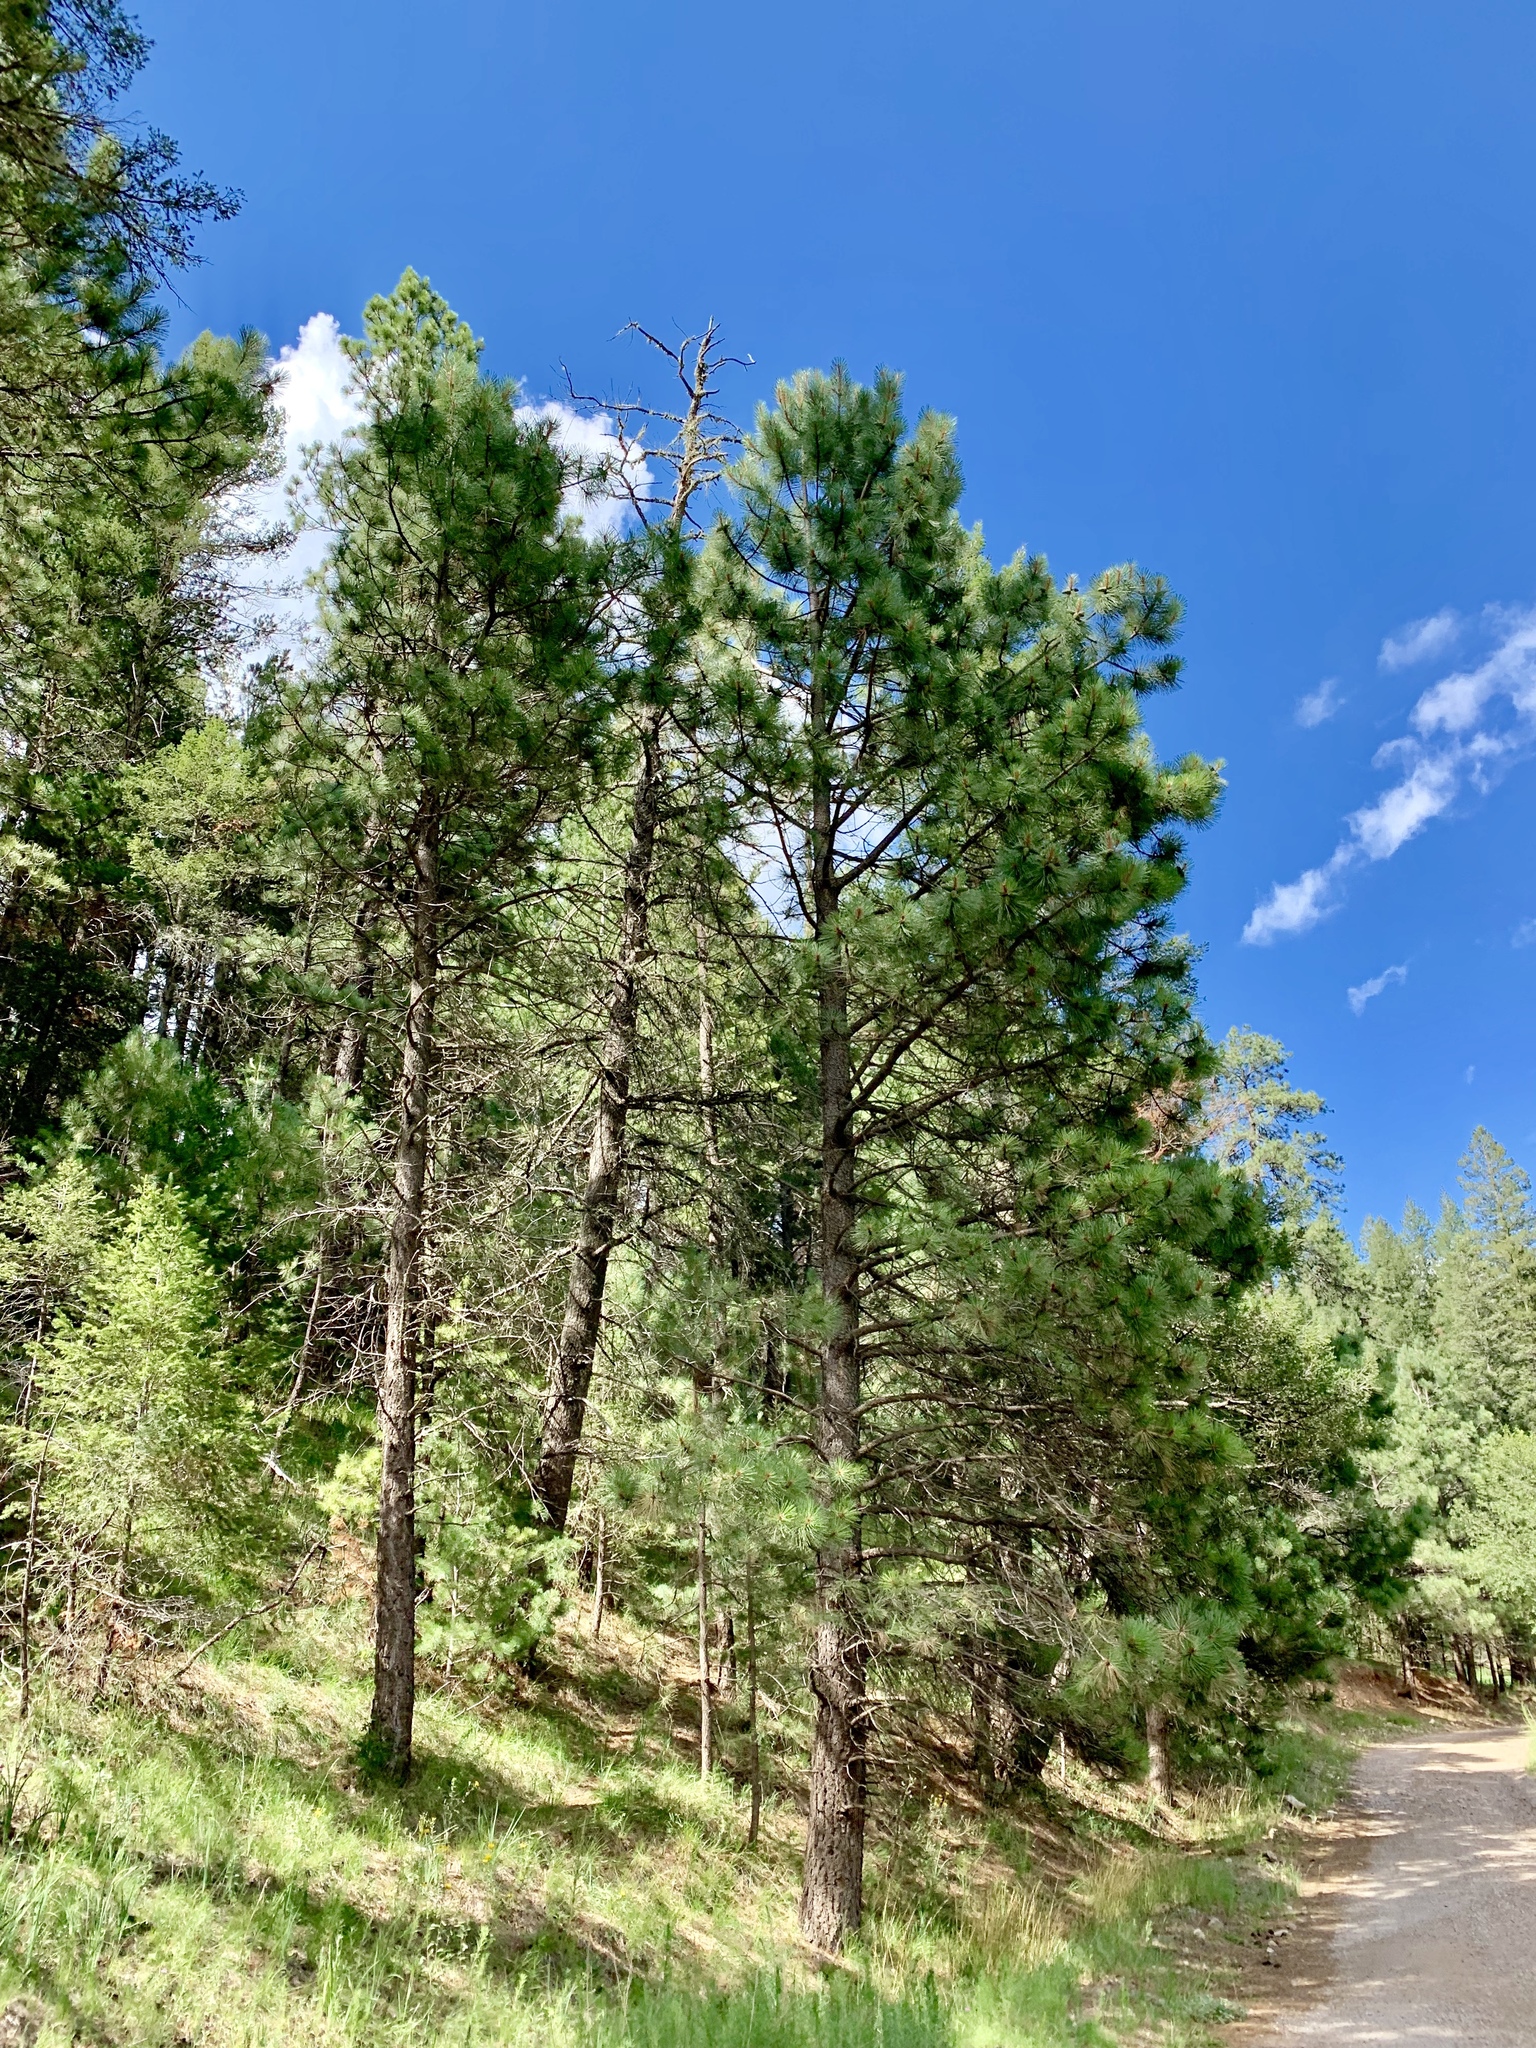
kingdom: Plantae
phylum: Tracheophyta
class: Pinopsida
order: Pinales
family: Pinaceae
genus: Pinus
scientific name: Pinus ponderosa
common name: Western yellow-pine
